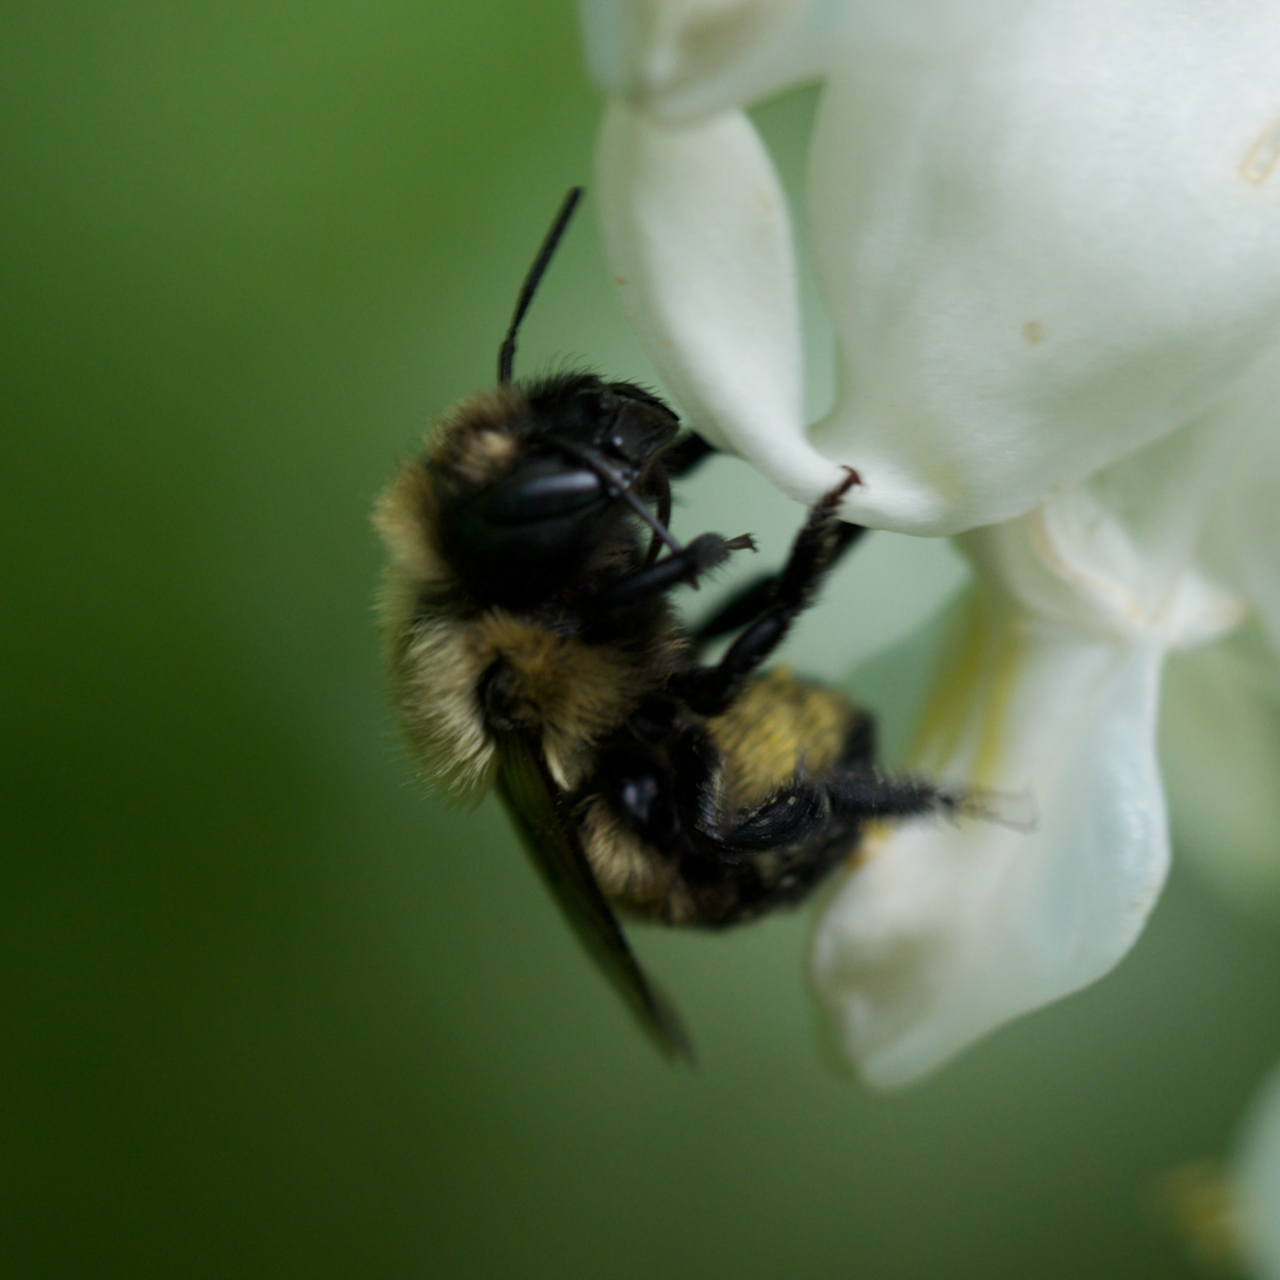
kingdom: Animalia
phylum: Arthropoda
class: Insecta
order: Hymenoptera
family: Megachilidae
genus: Osmia
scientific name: Osmia bucephala
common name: Bufflehead mason bee
